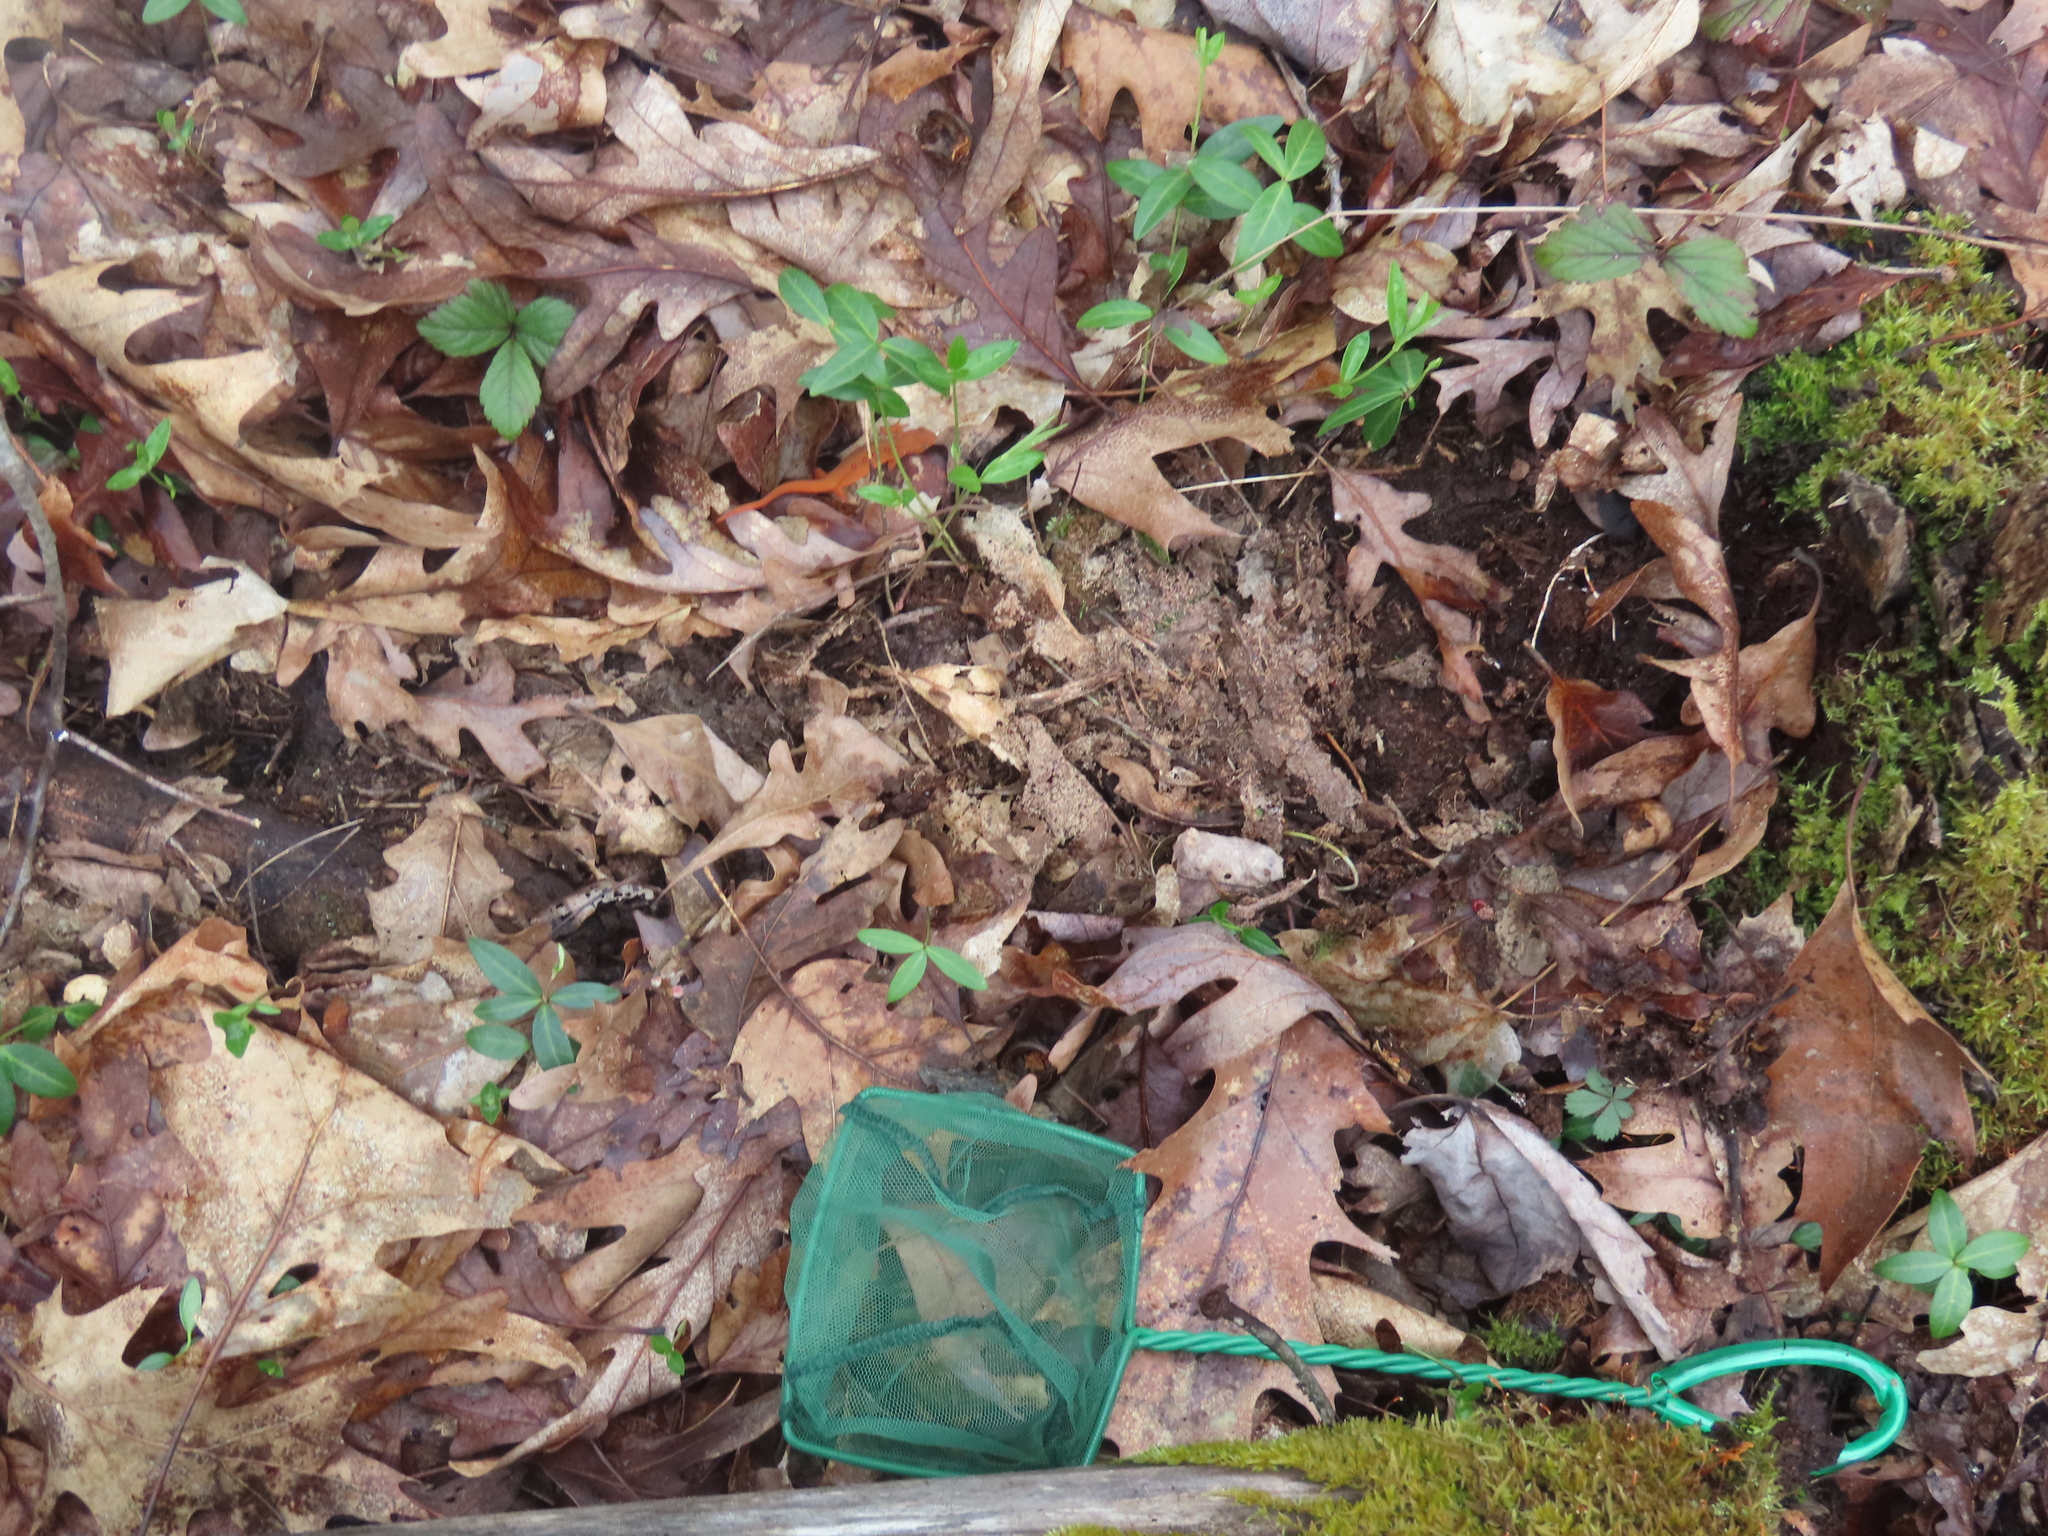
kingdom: Animalia
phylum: Chordata
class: Amphibia
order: Caudata
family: Salamandridae
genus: Notophthalmus
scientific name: Notophthalmus viridescens
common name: Eastern newt
